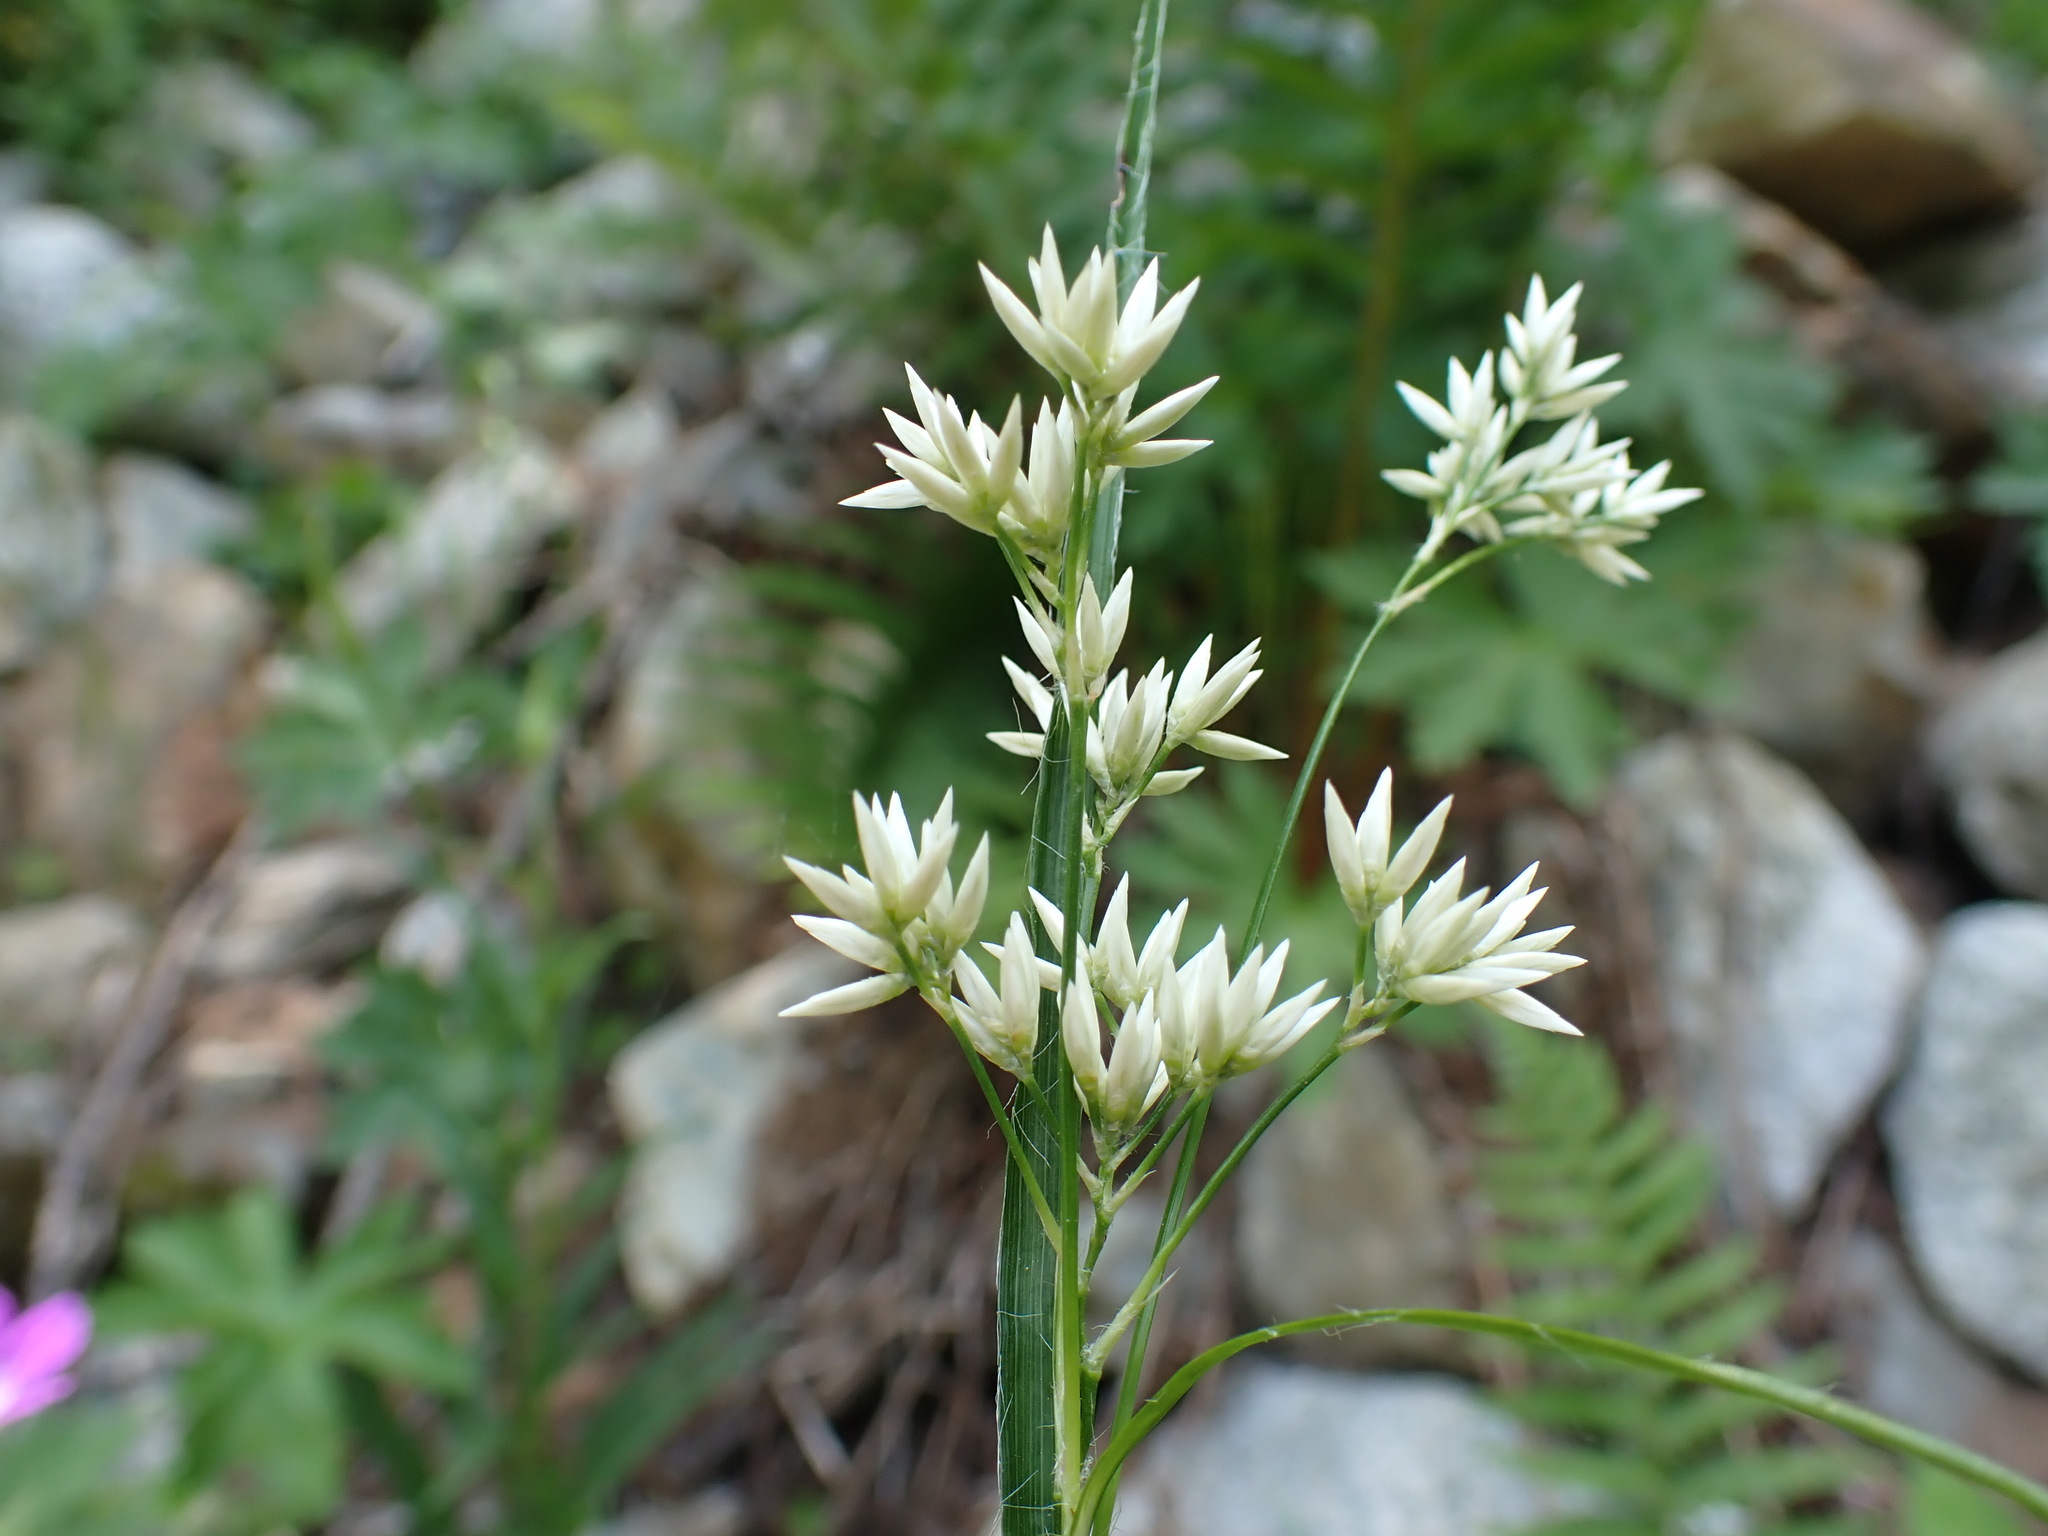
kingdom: Plantae
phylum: Tracheophyta
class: Liliopsida
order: Poales
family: Juncaceae
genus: Luzula
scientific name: Luzula nivea
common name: Snow-white wood-rush
